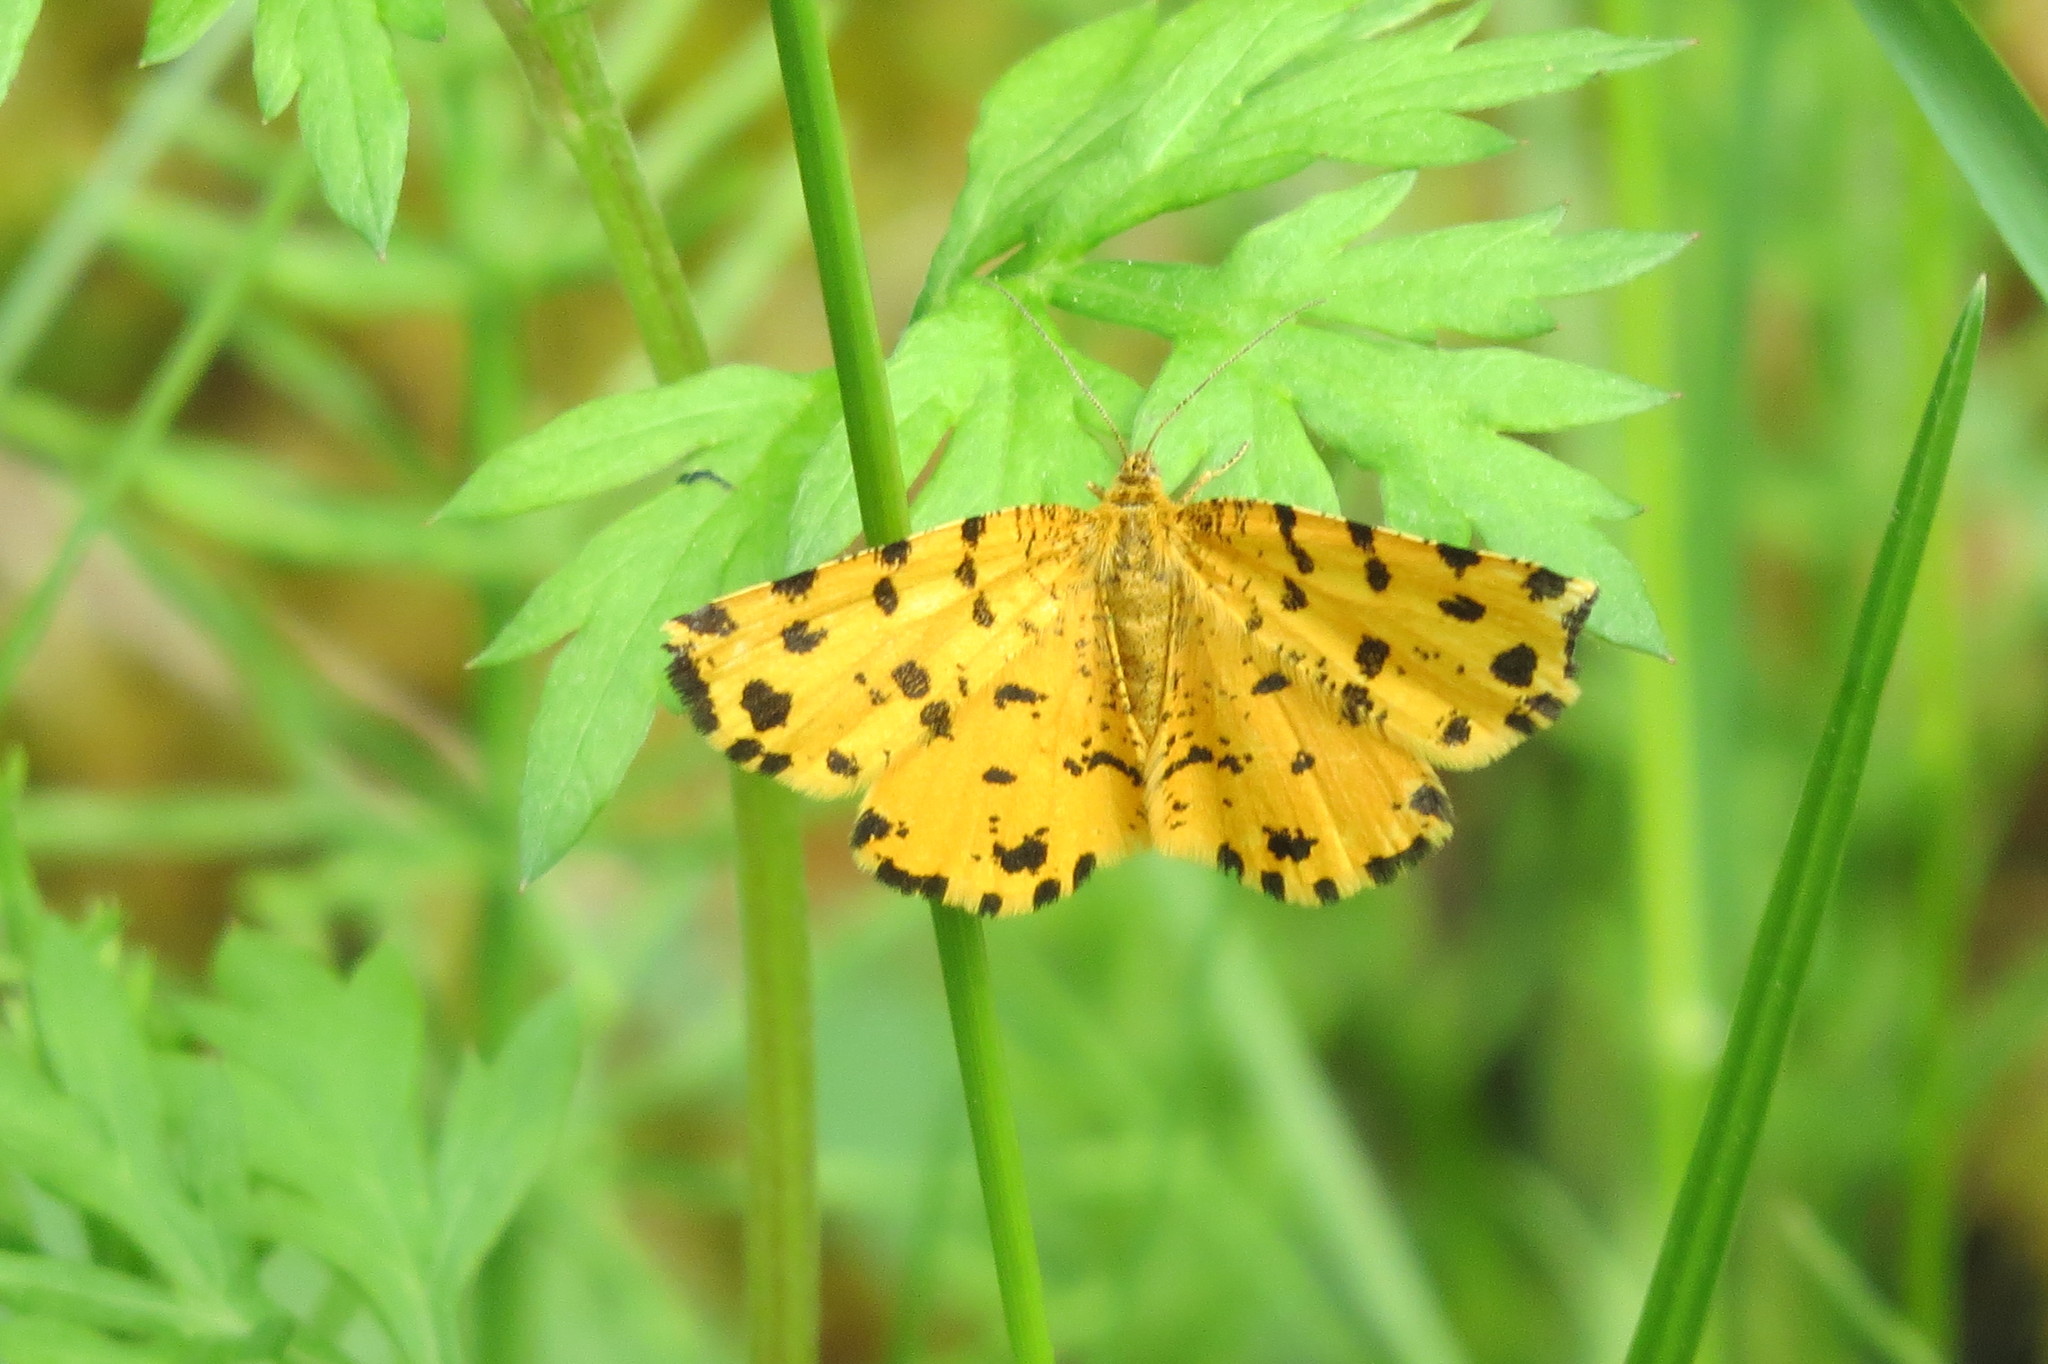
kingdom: Animalia
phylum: Arthropoda
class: Insecta
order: Lepidoptera
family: Geometridae
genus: Pseudopanthera
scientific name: Pseudopanthera macularia
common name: Speckled yellow
